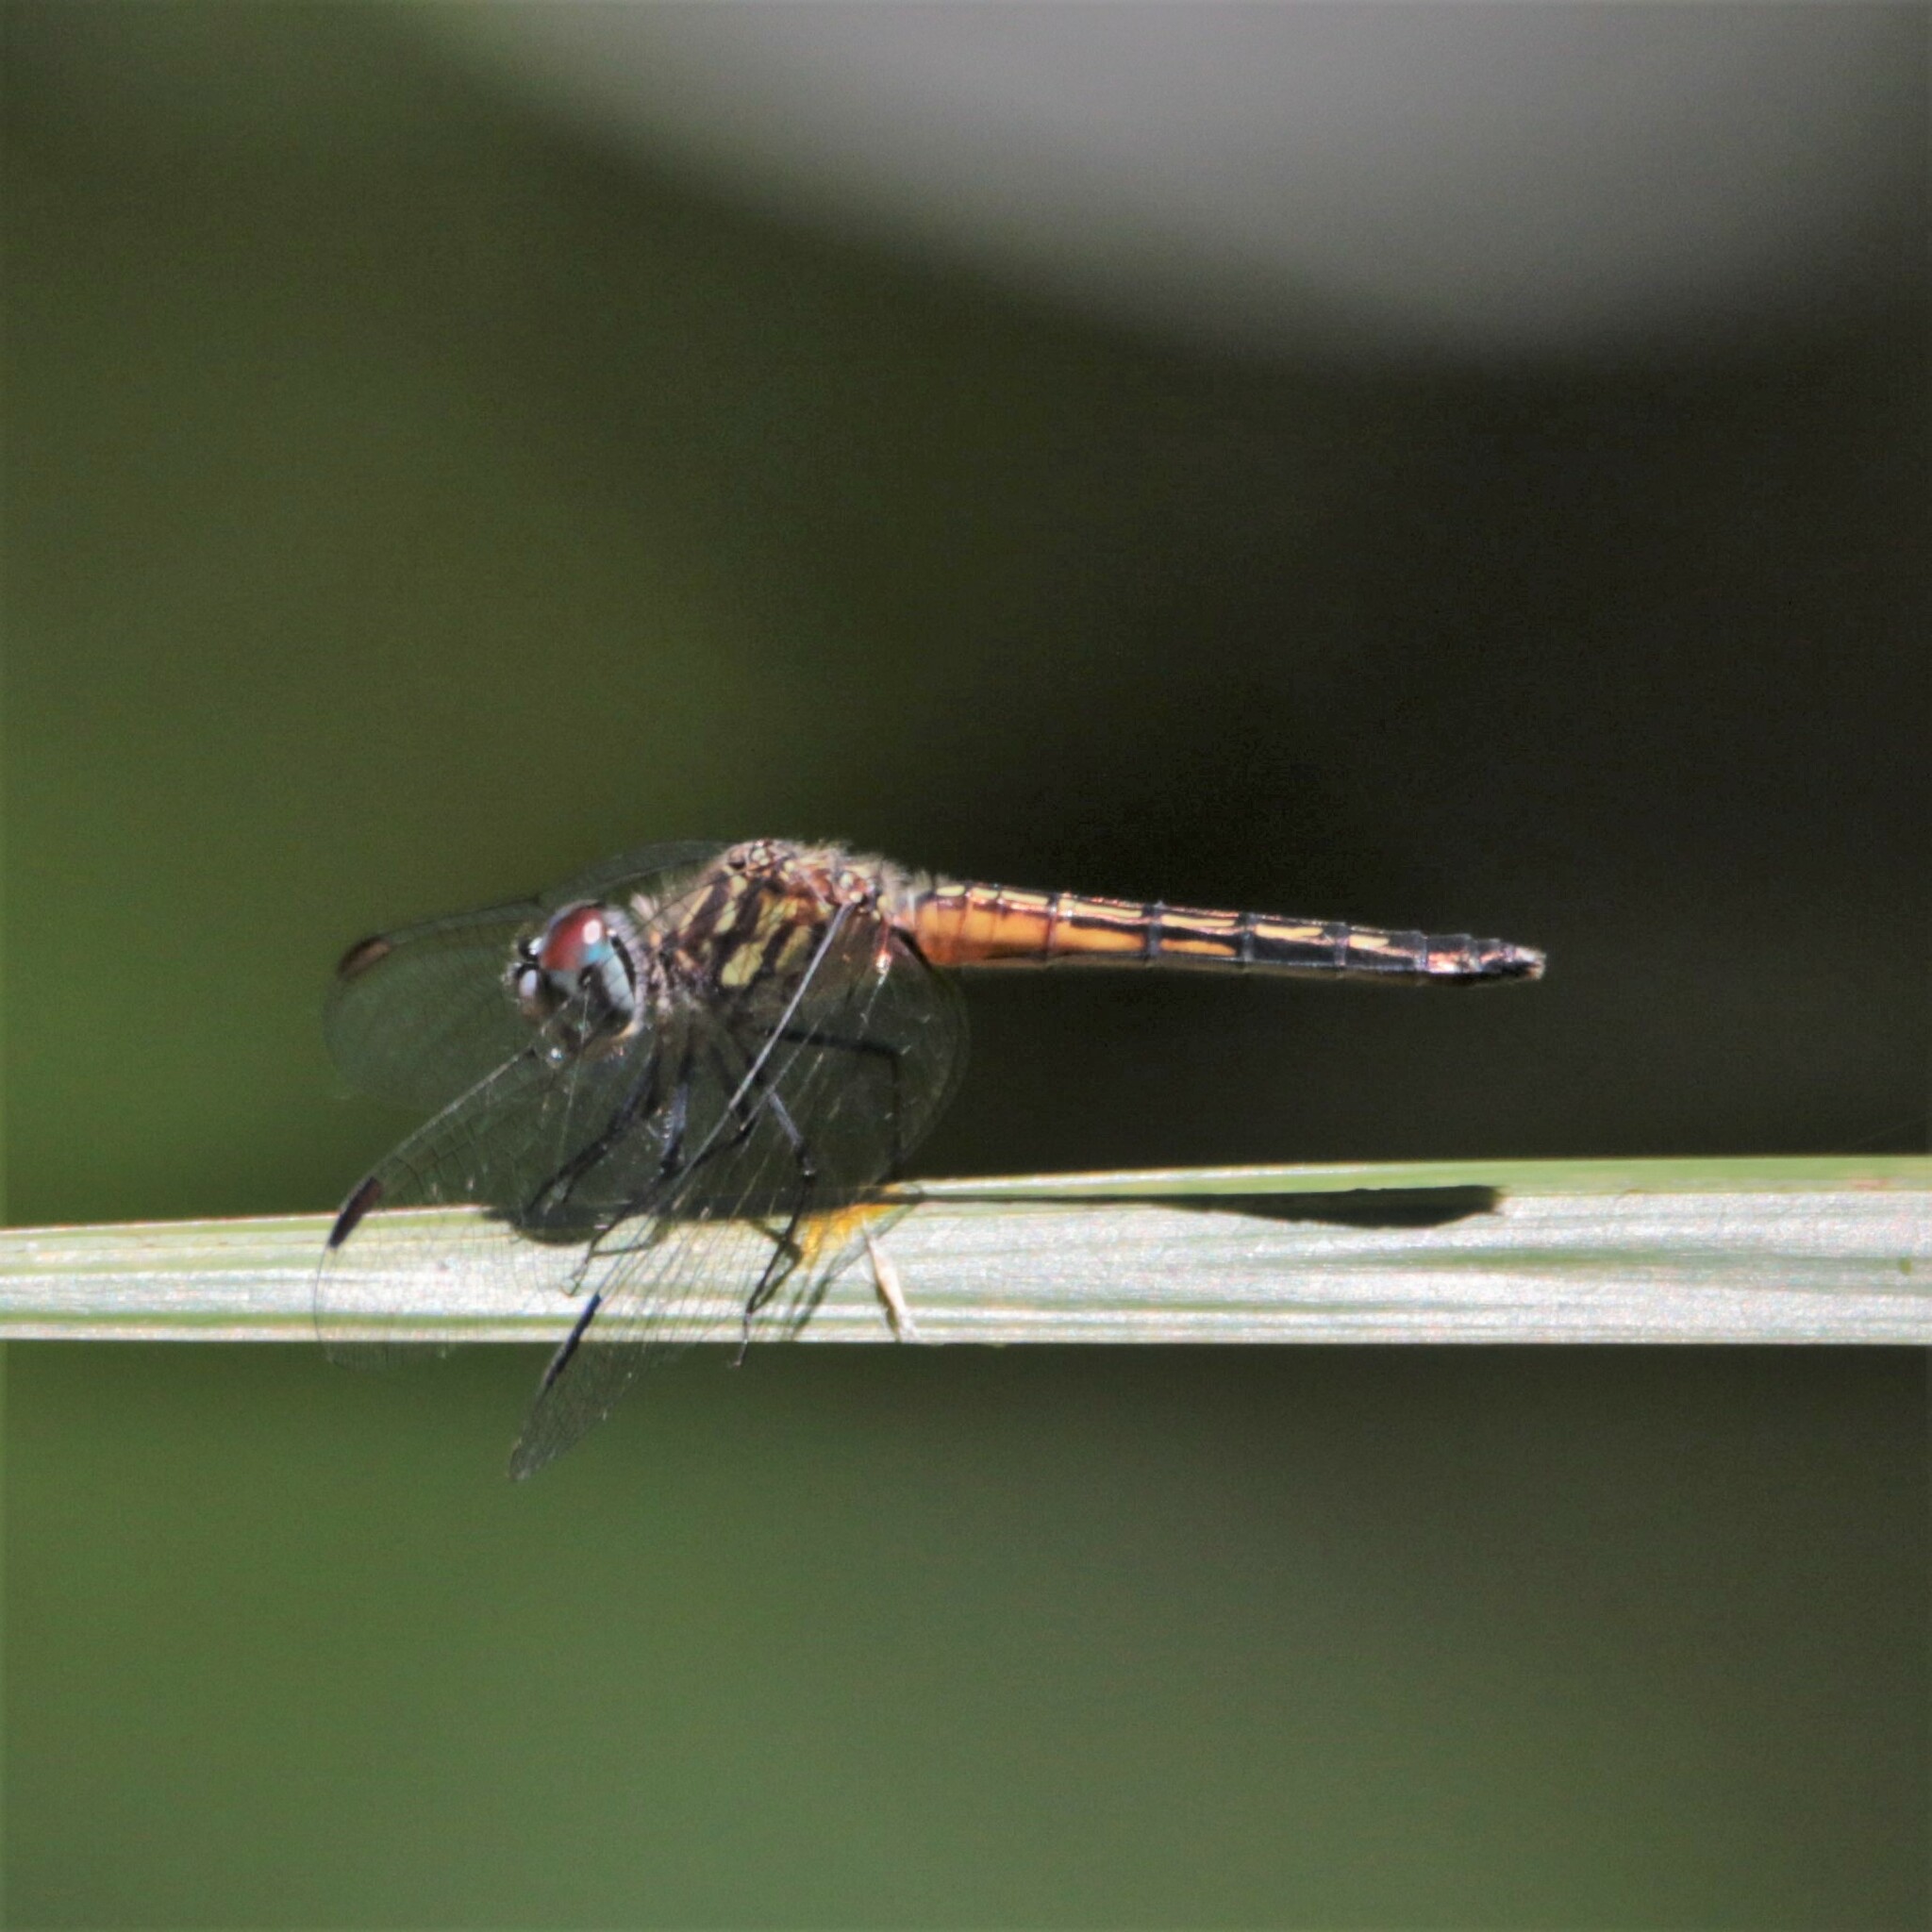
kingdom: Animalia
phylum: Arthropoda
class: Insecta
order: Odonata
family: Libellulidae
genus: Pachydiplax
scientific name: Pachydiplax longipennis
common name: Blue dasher
